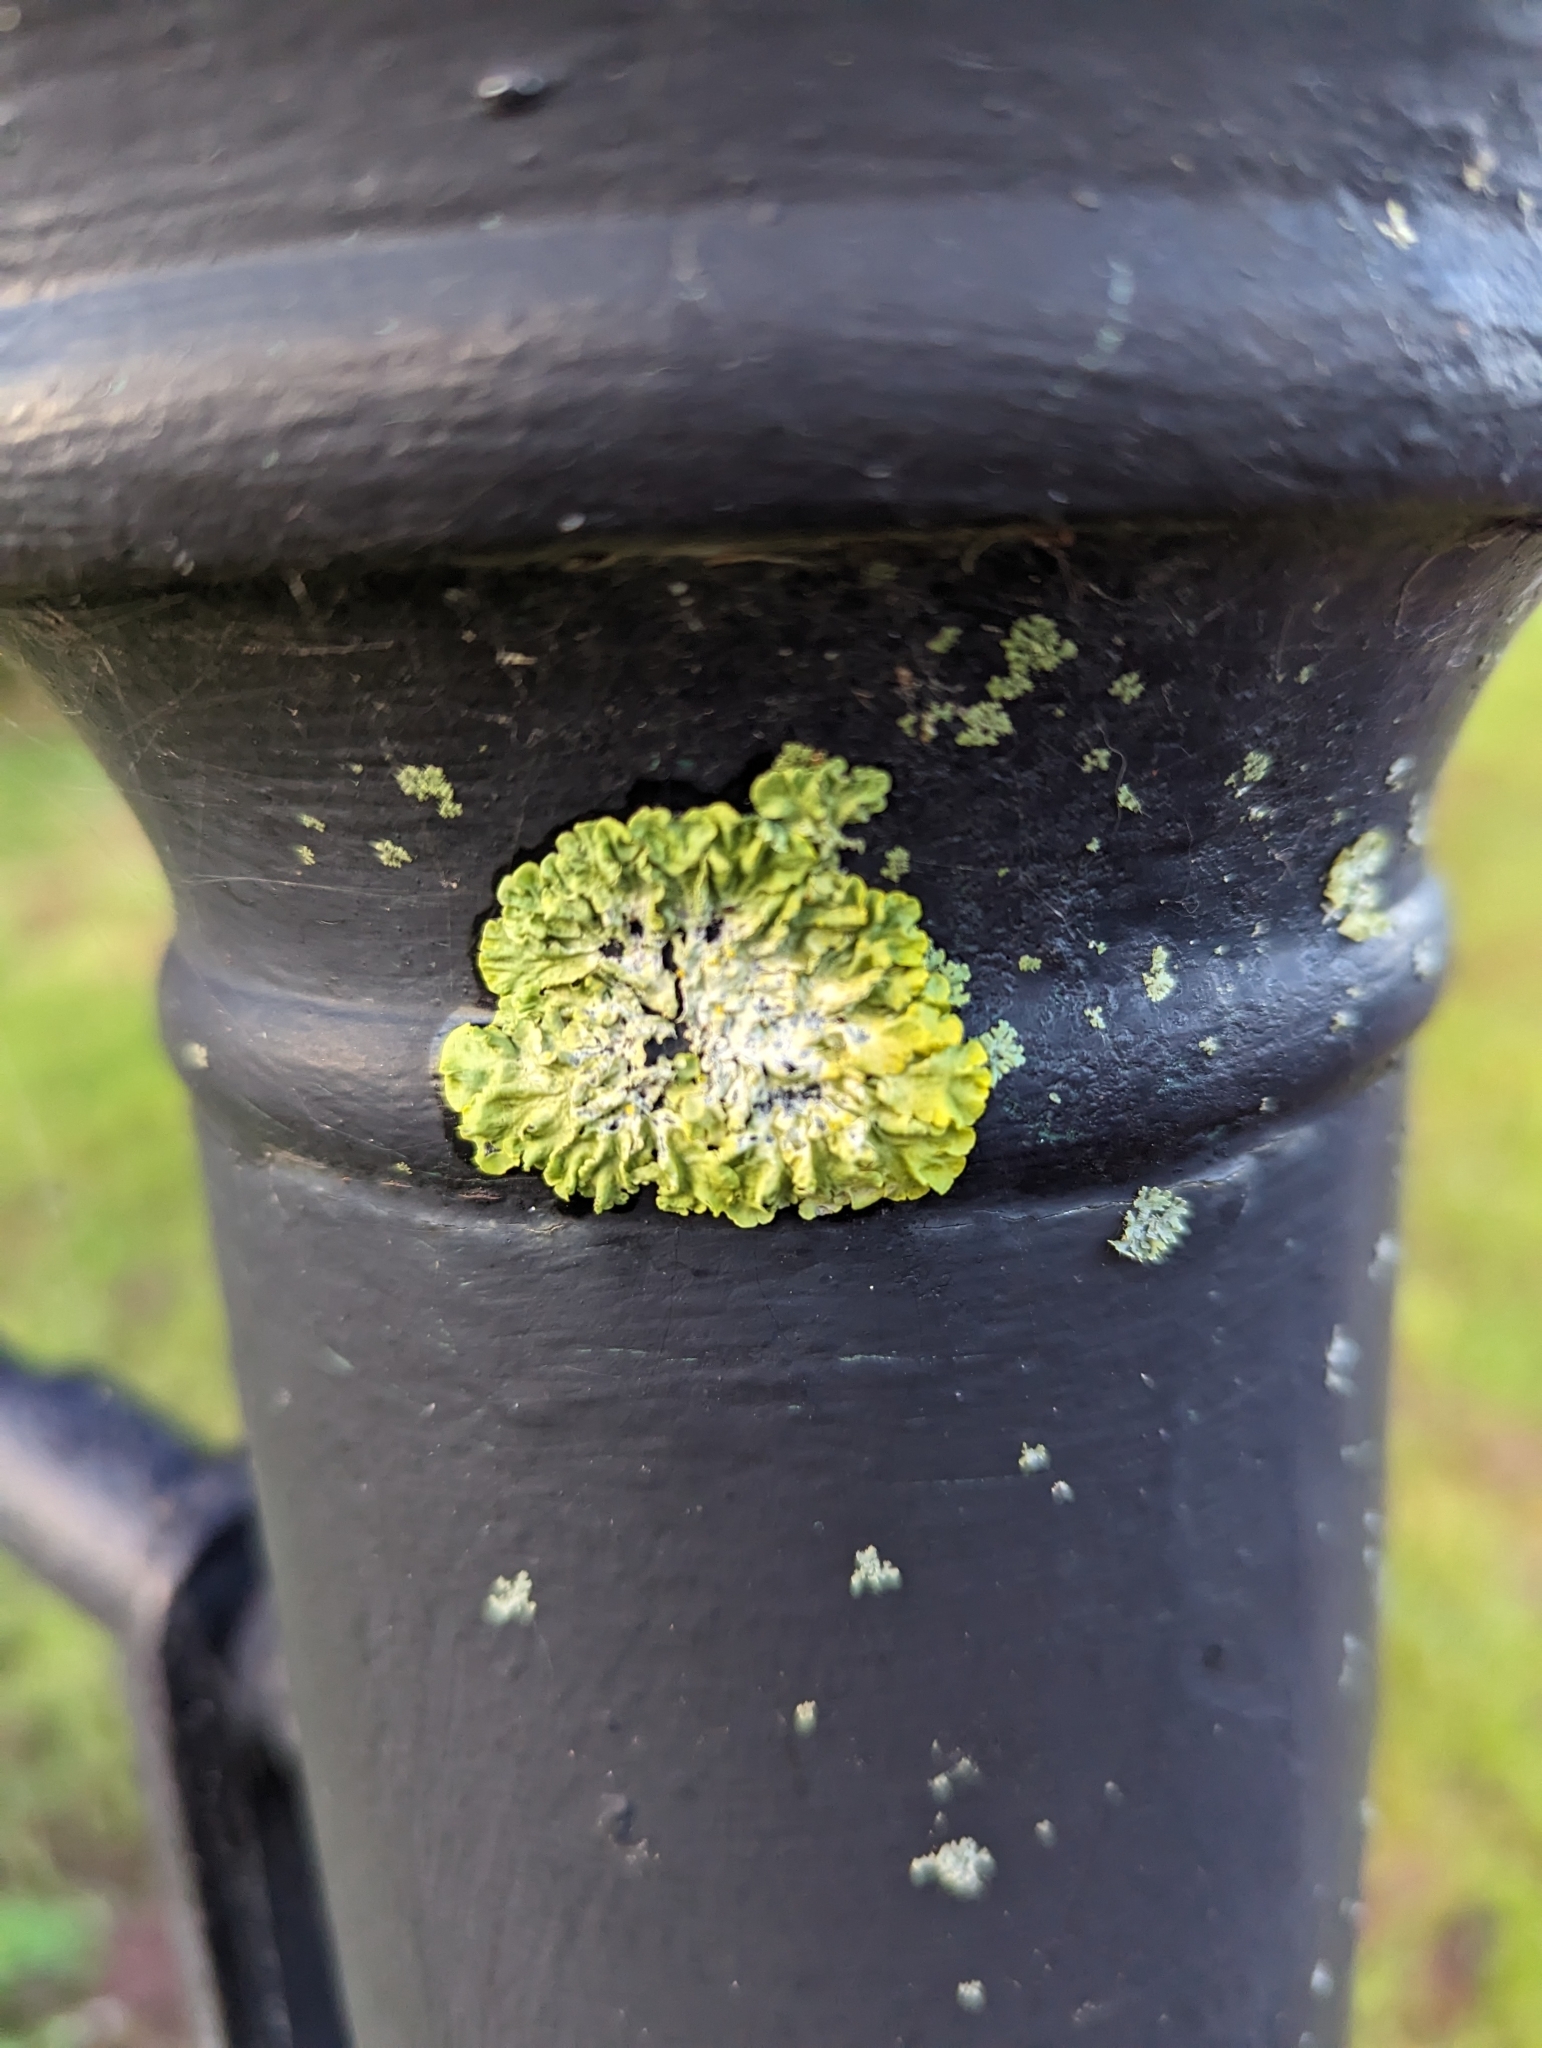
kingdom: Fungi
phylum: Ascomycota
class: Lecanoromycetes
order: Teloschistales
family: Teloschistaceae
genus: Xanthoria
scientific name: Xanthoria parietina
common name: Common orange lichen
